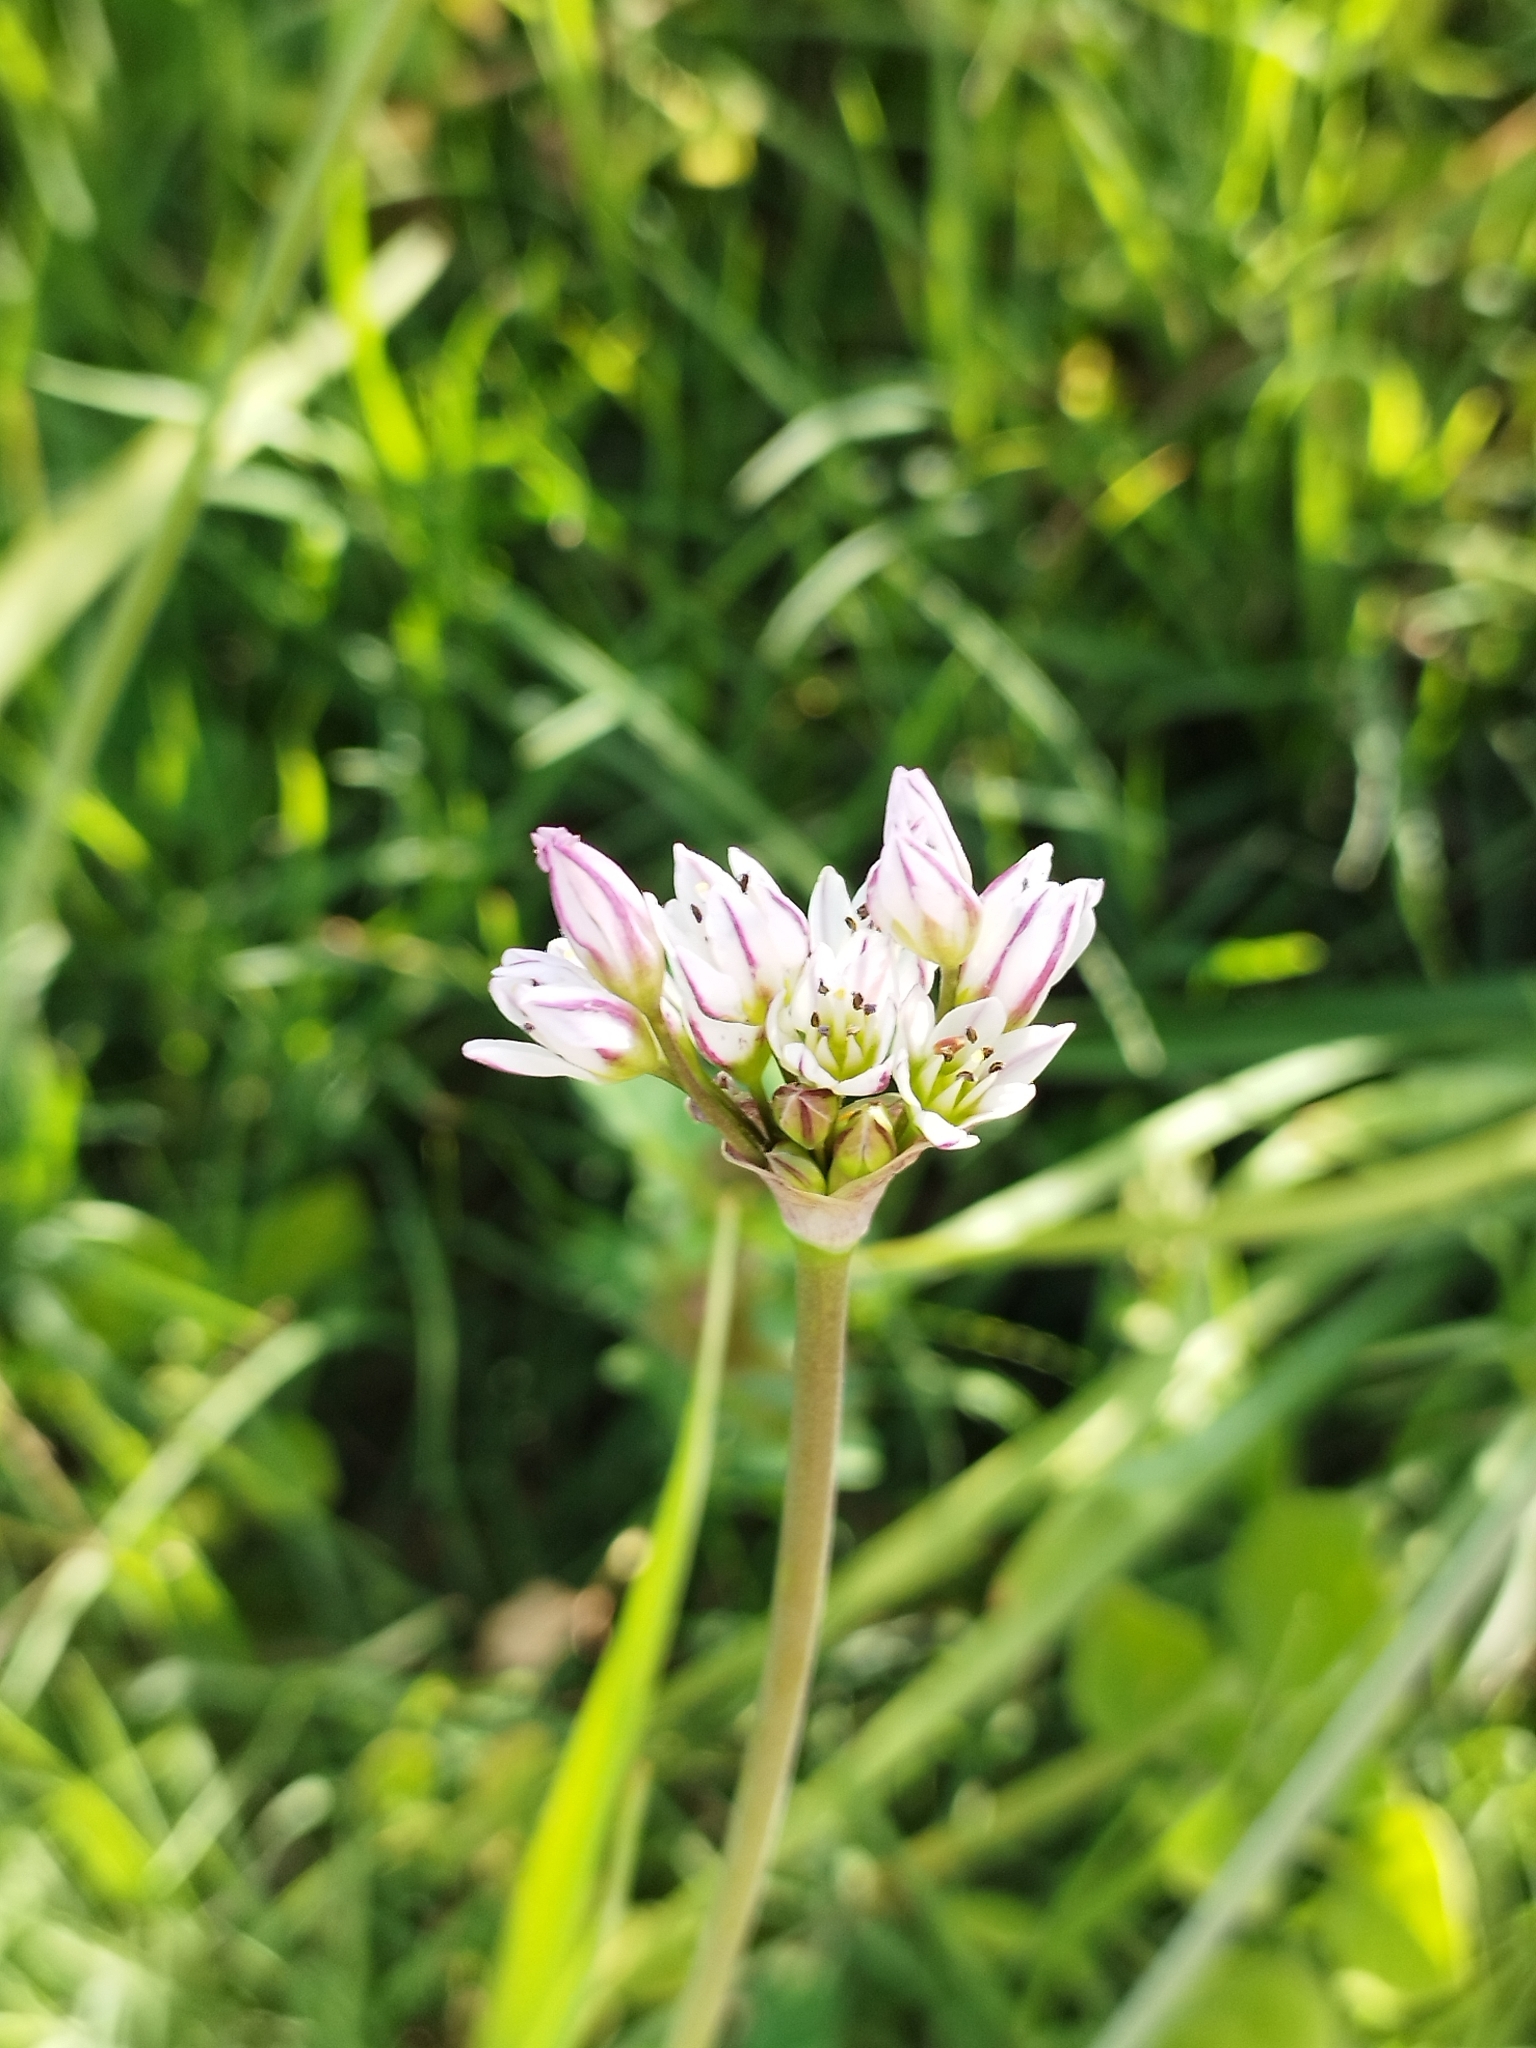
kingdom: Plantae
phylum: Tracheophyta
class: Liliopsida
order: Asparagales
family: Amaryllidaceae
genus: Nothoscordum
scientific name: Nothoscordum gracile
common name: Slender false garlic
